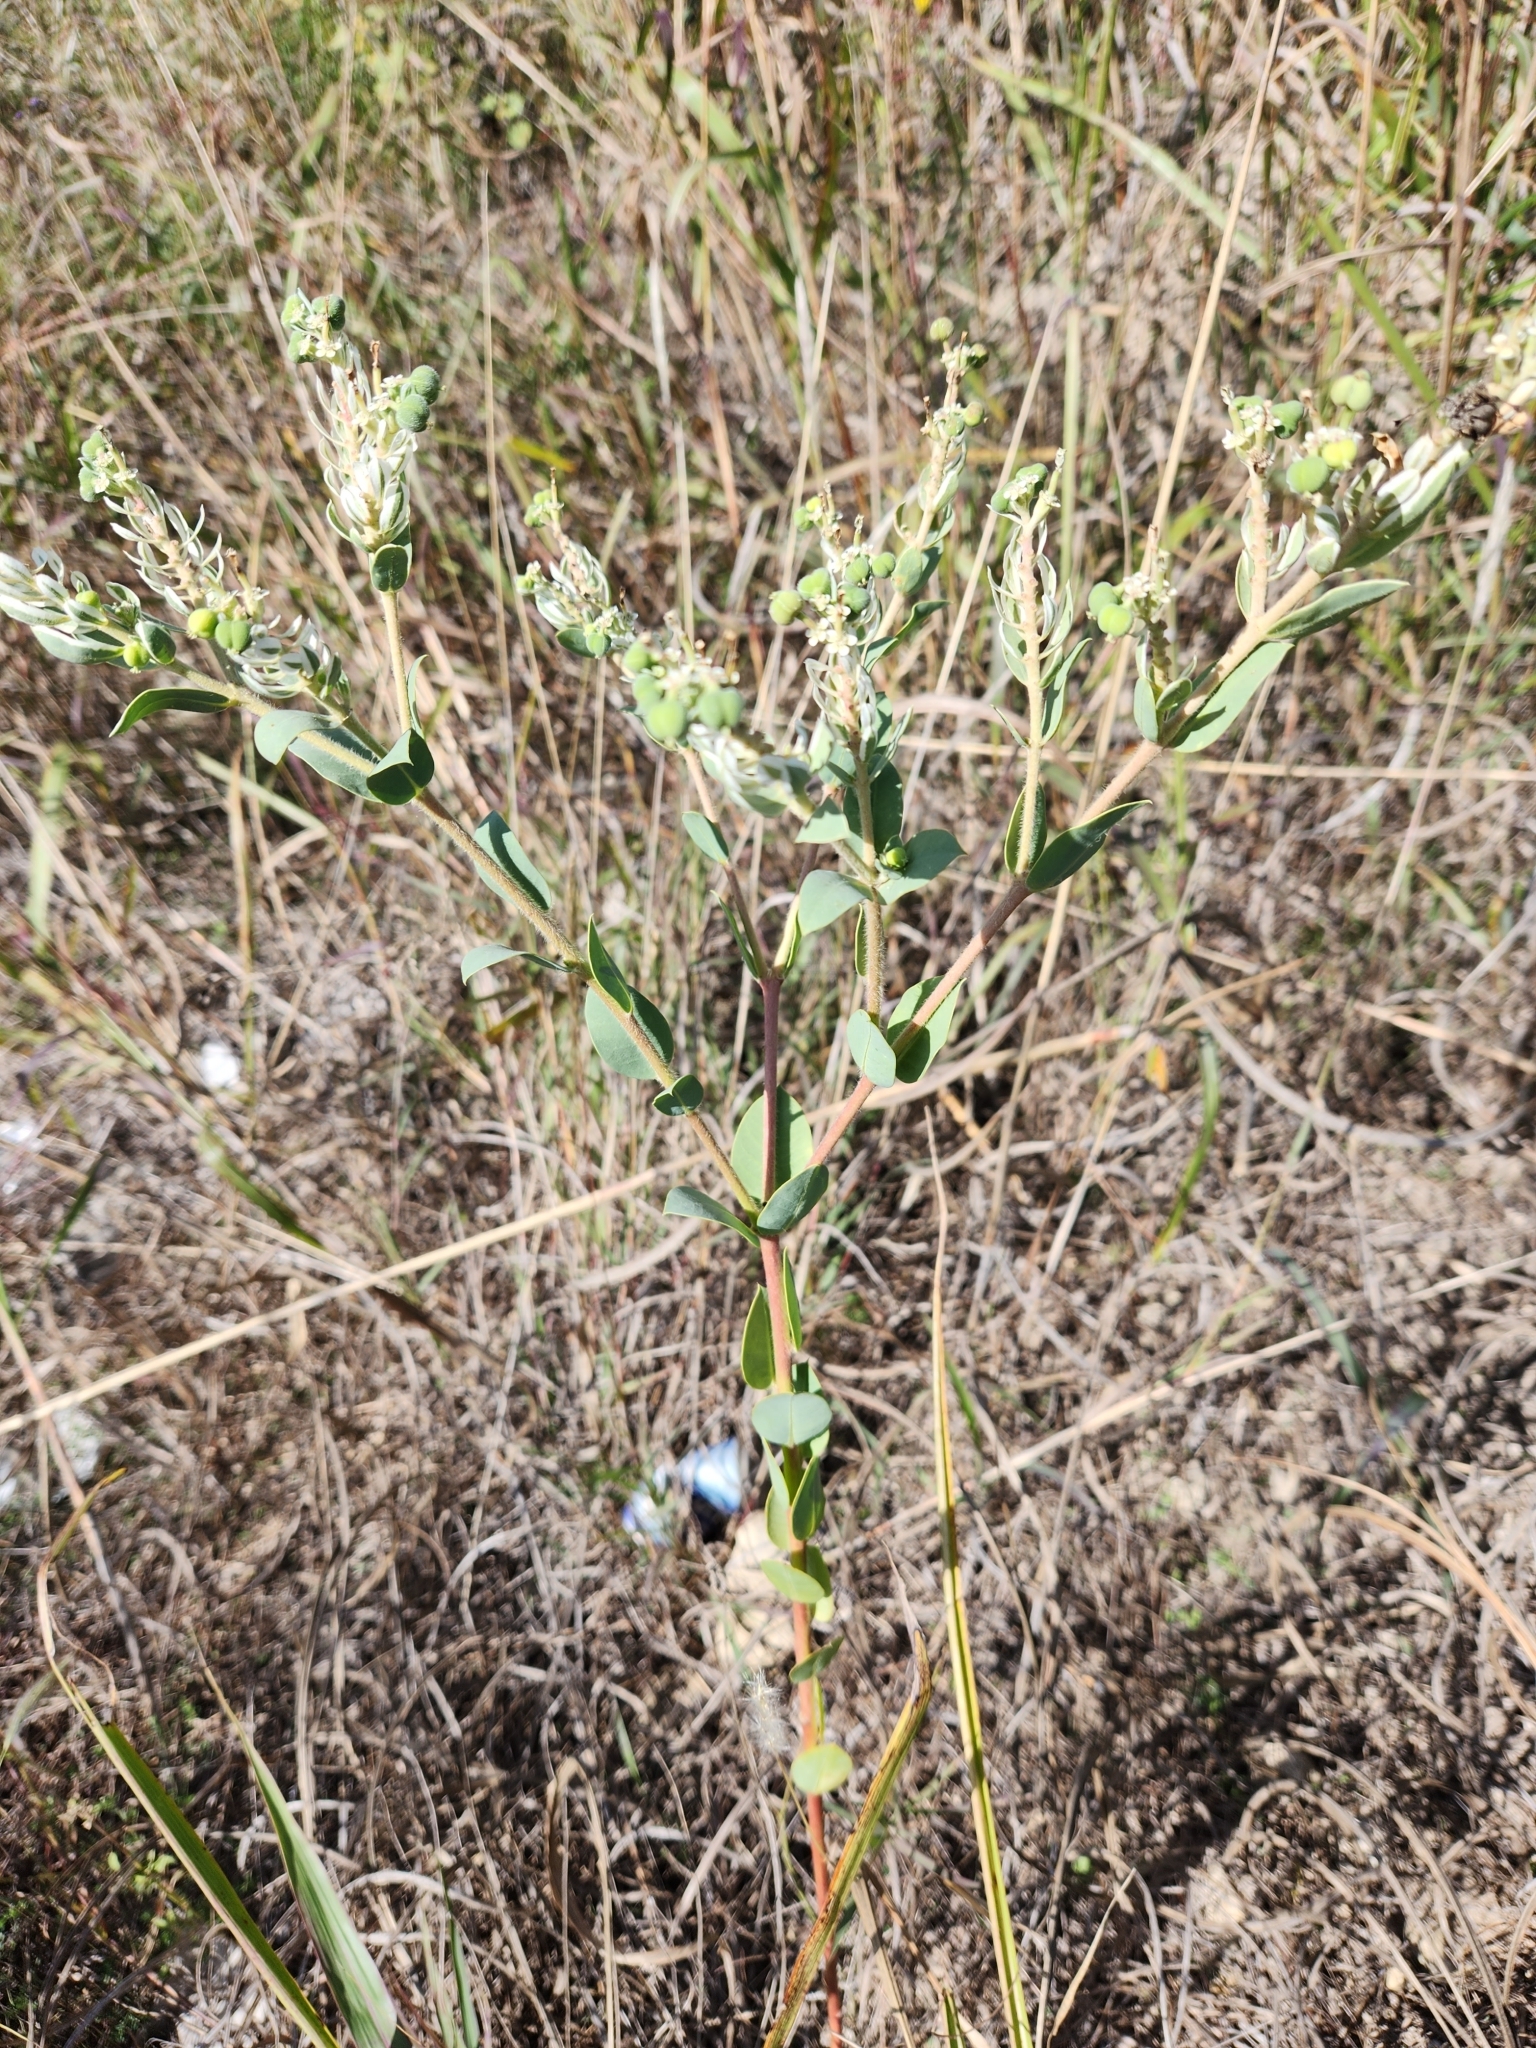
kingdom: Plantae
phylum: Tracheophyta
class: Magnoliopsida
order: Malpighiales
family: Euphorbiaceae
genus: Euphorbia
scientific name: Euphorbia marginata
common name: Ghostweed
